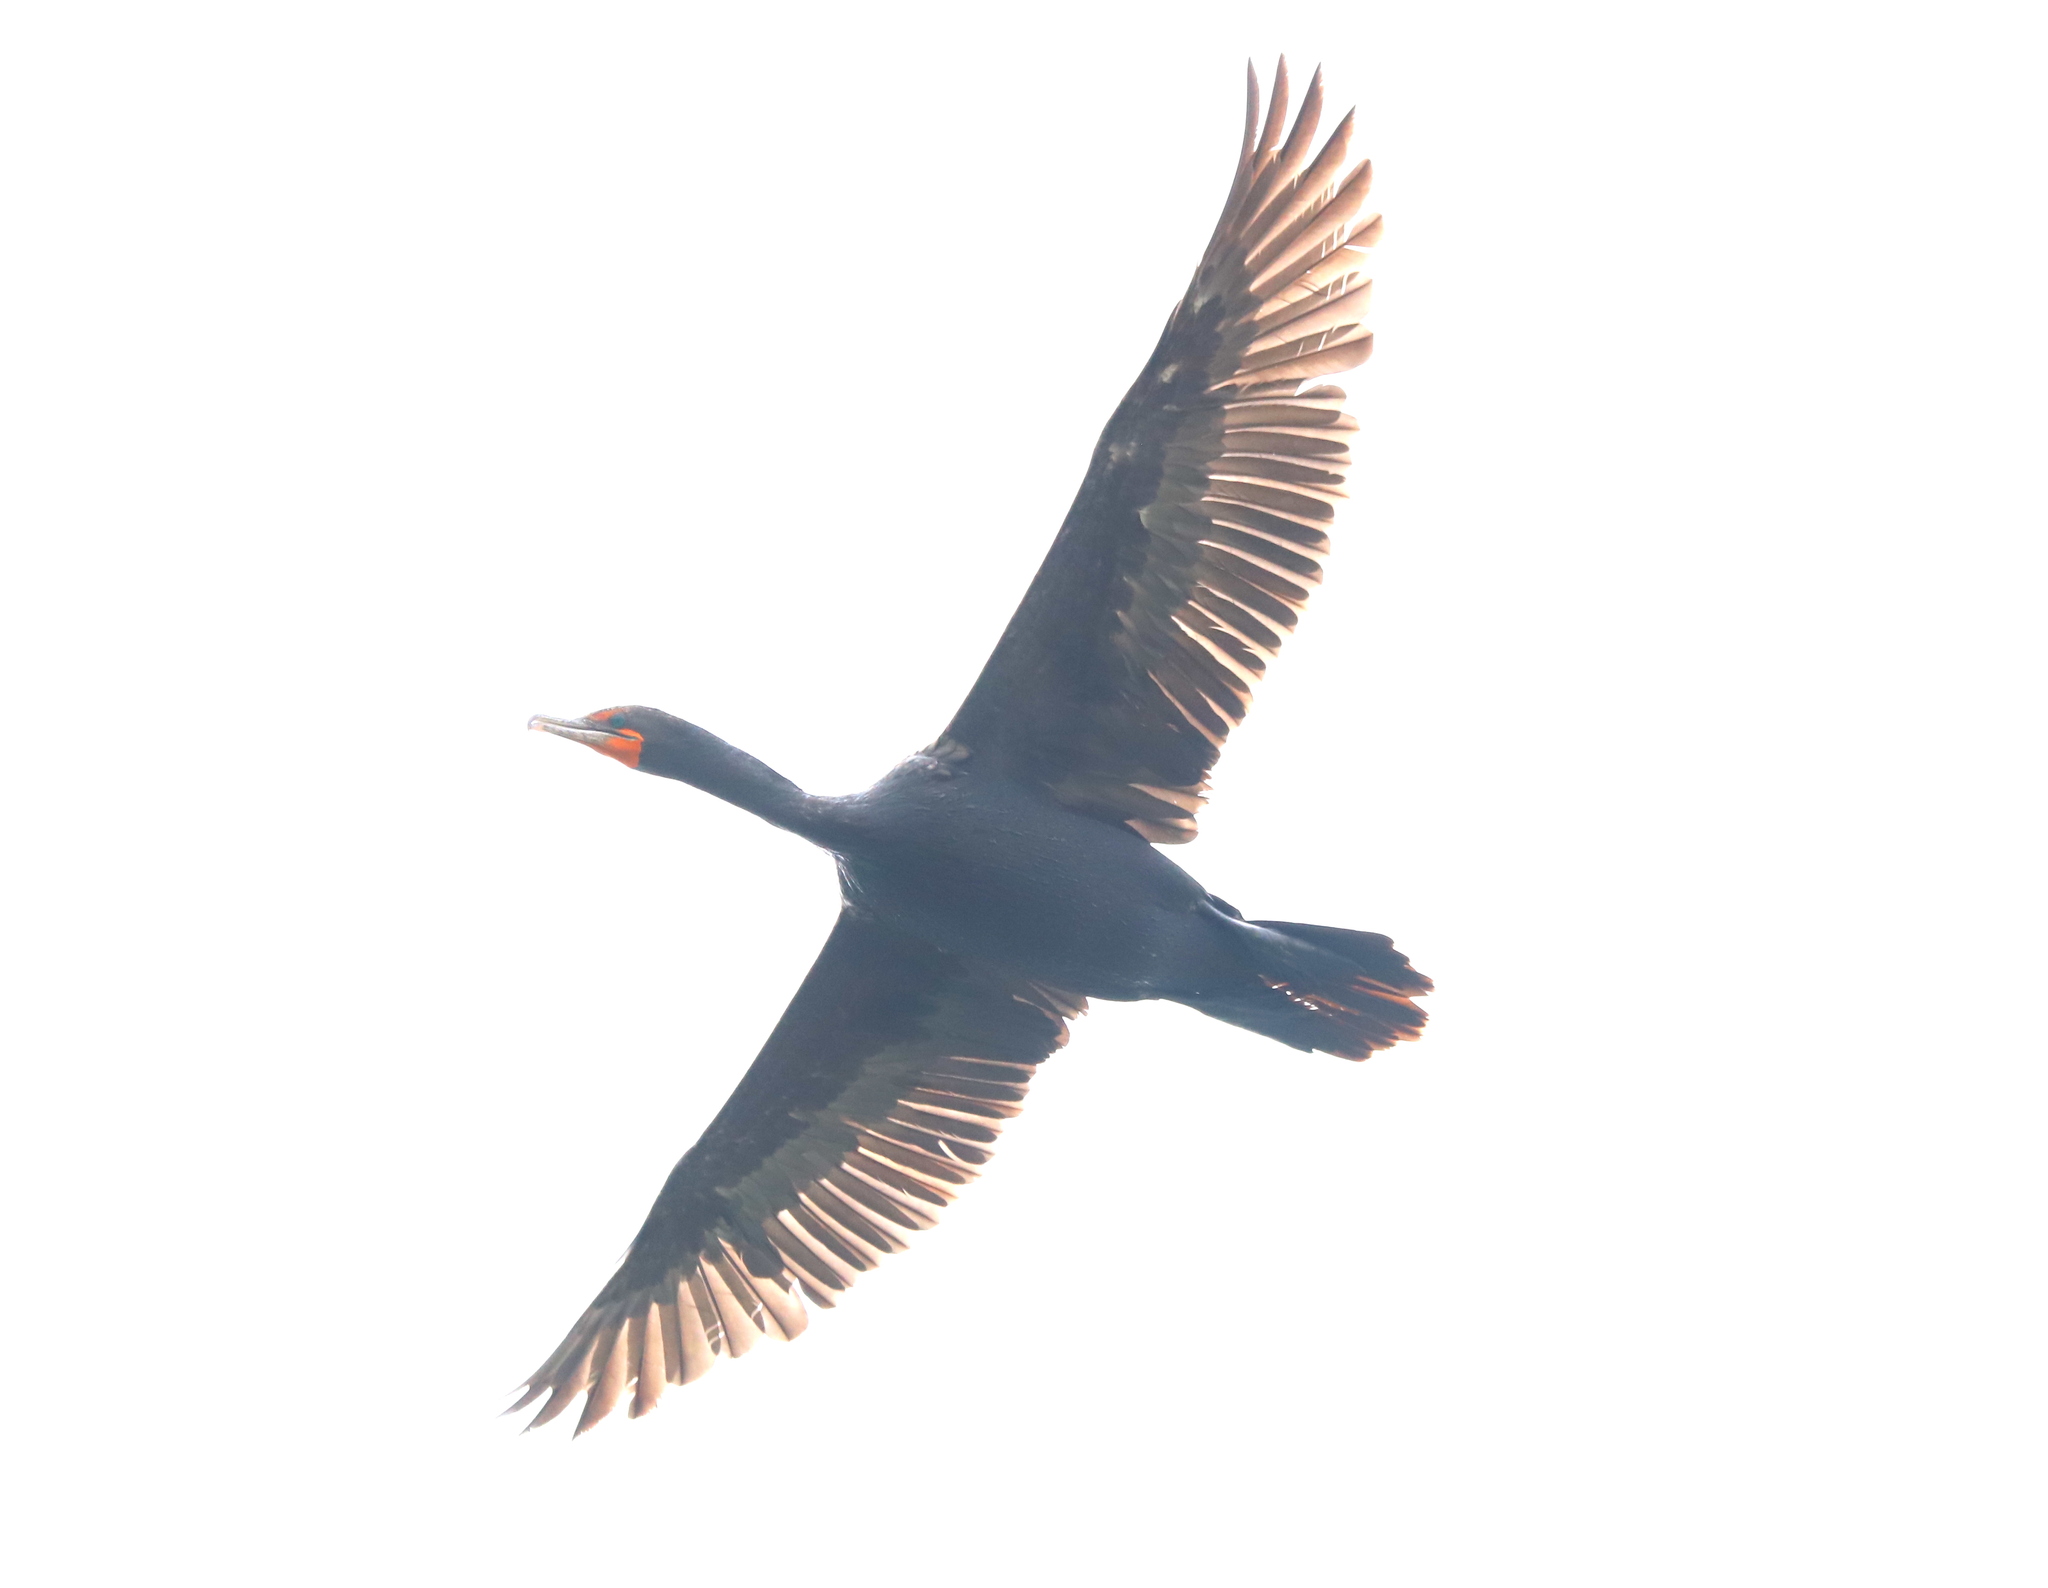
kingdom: Animalia
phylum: Chordata
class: Aves
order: Suliformes
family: Phalacrocoracidae
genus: Phalacrocorax
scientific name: Phalacrocorax auritus
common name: Double-crested cormorant
